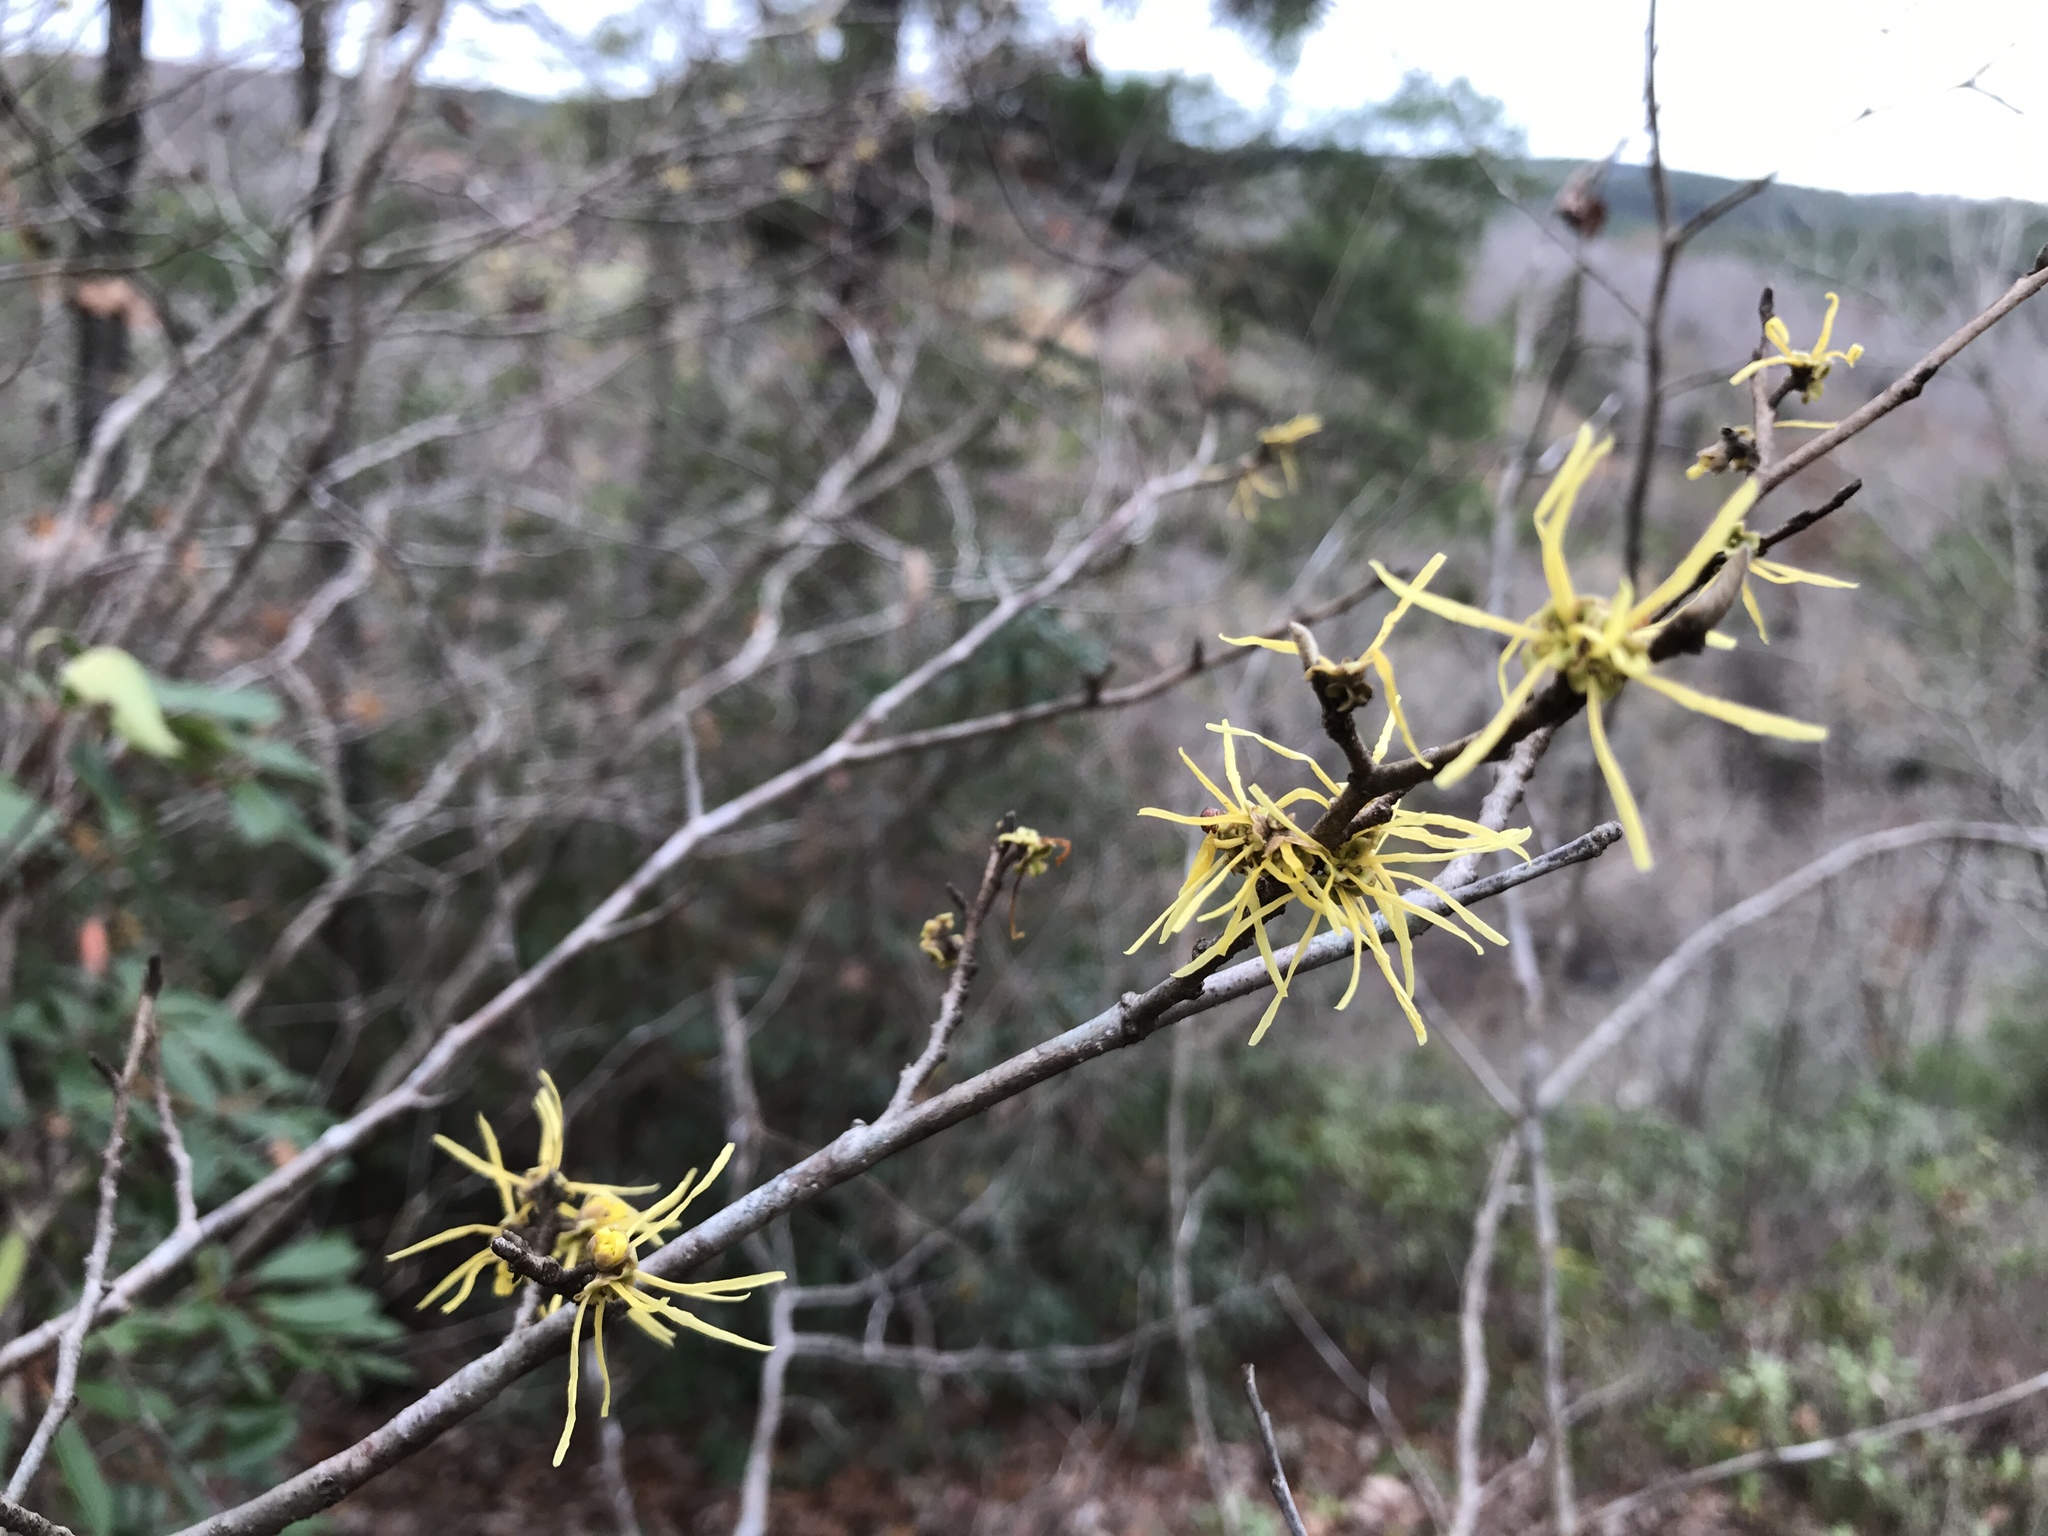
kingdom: Plantae
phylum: Tracheophyta
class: Magnoliopsida
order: Saxifragales
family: Hamamelidaceae
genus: Hamamelis
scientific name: Hamamelis virginiana
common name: Witch-hazel
